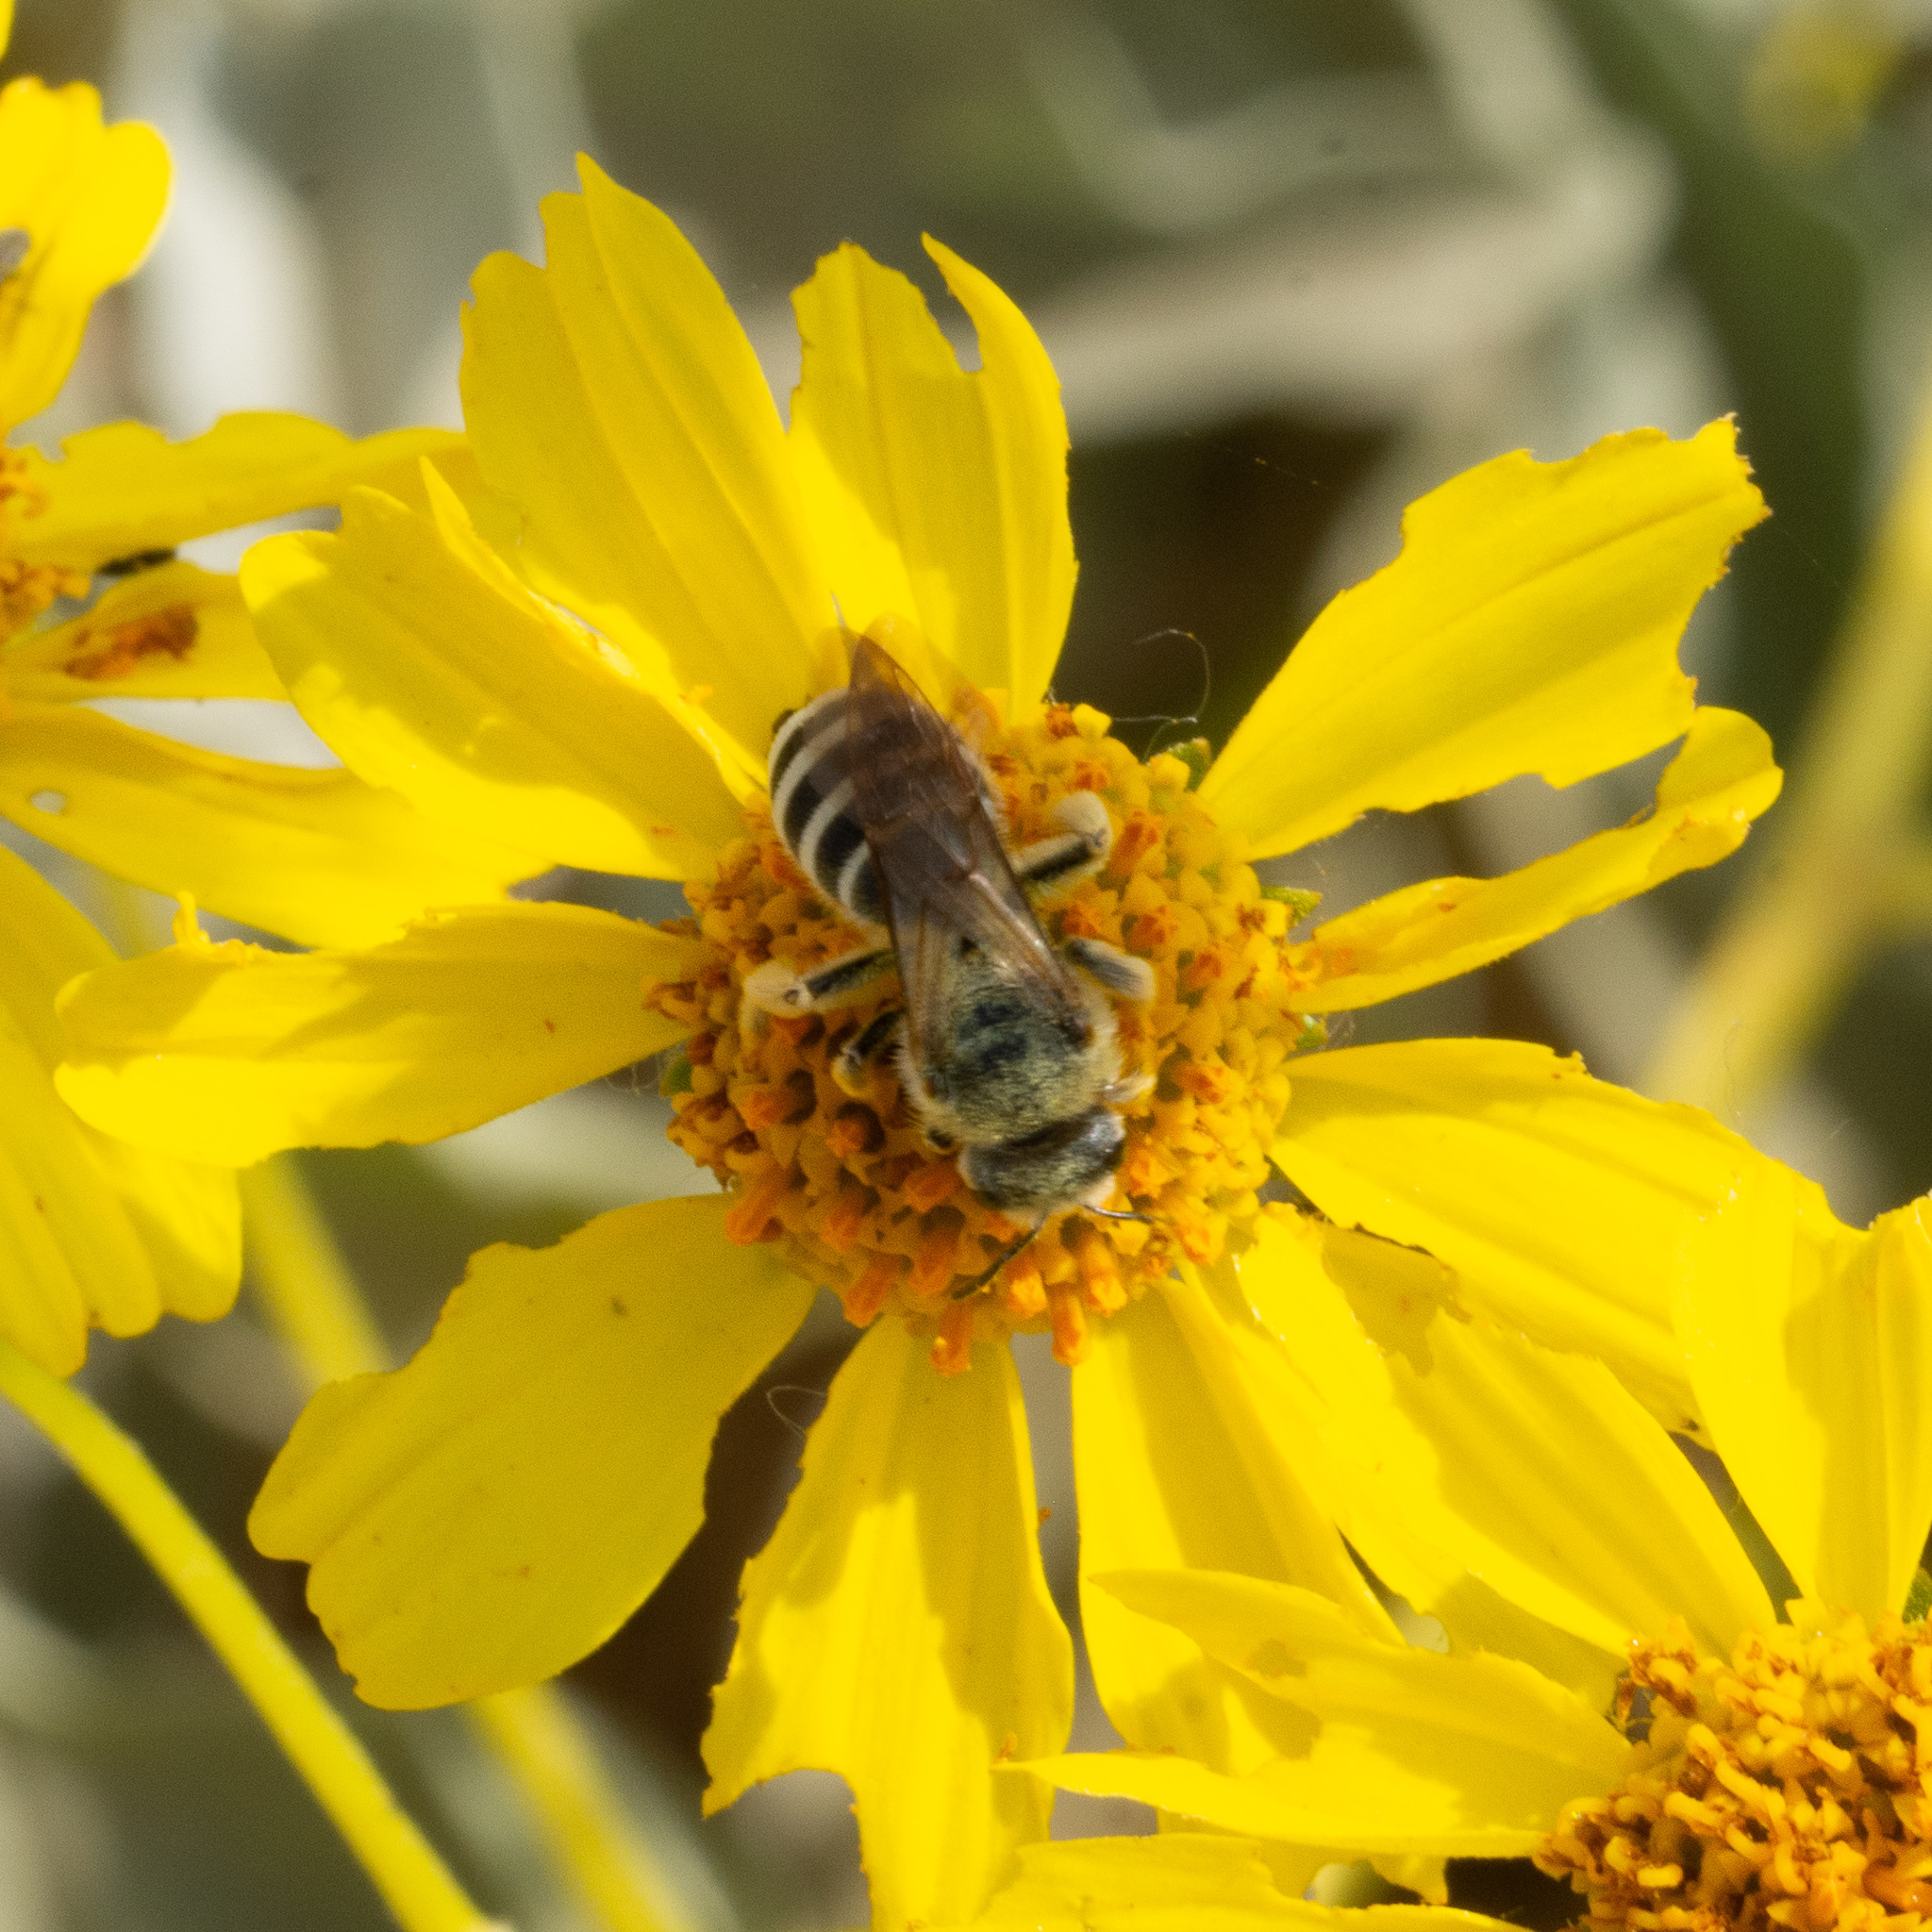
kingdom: Animalia
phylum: Arthropoda
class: Insecta
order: Hymenoptera
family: Halictidae
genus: Halictus
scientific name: Halictus farinosus
